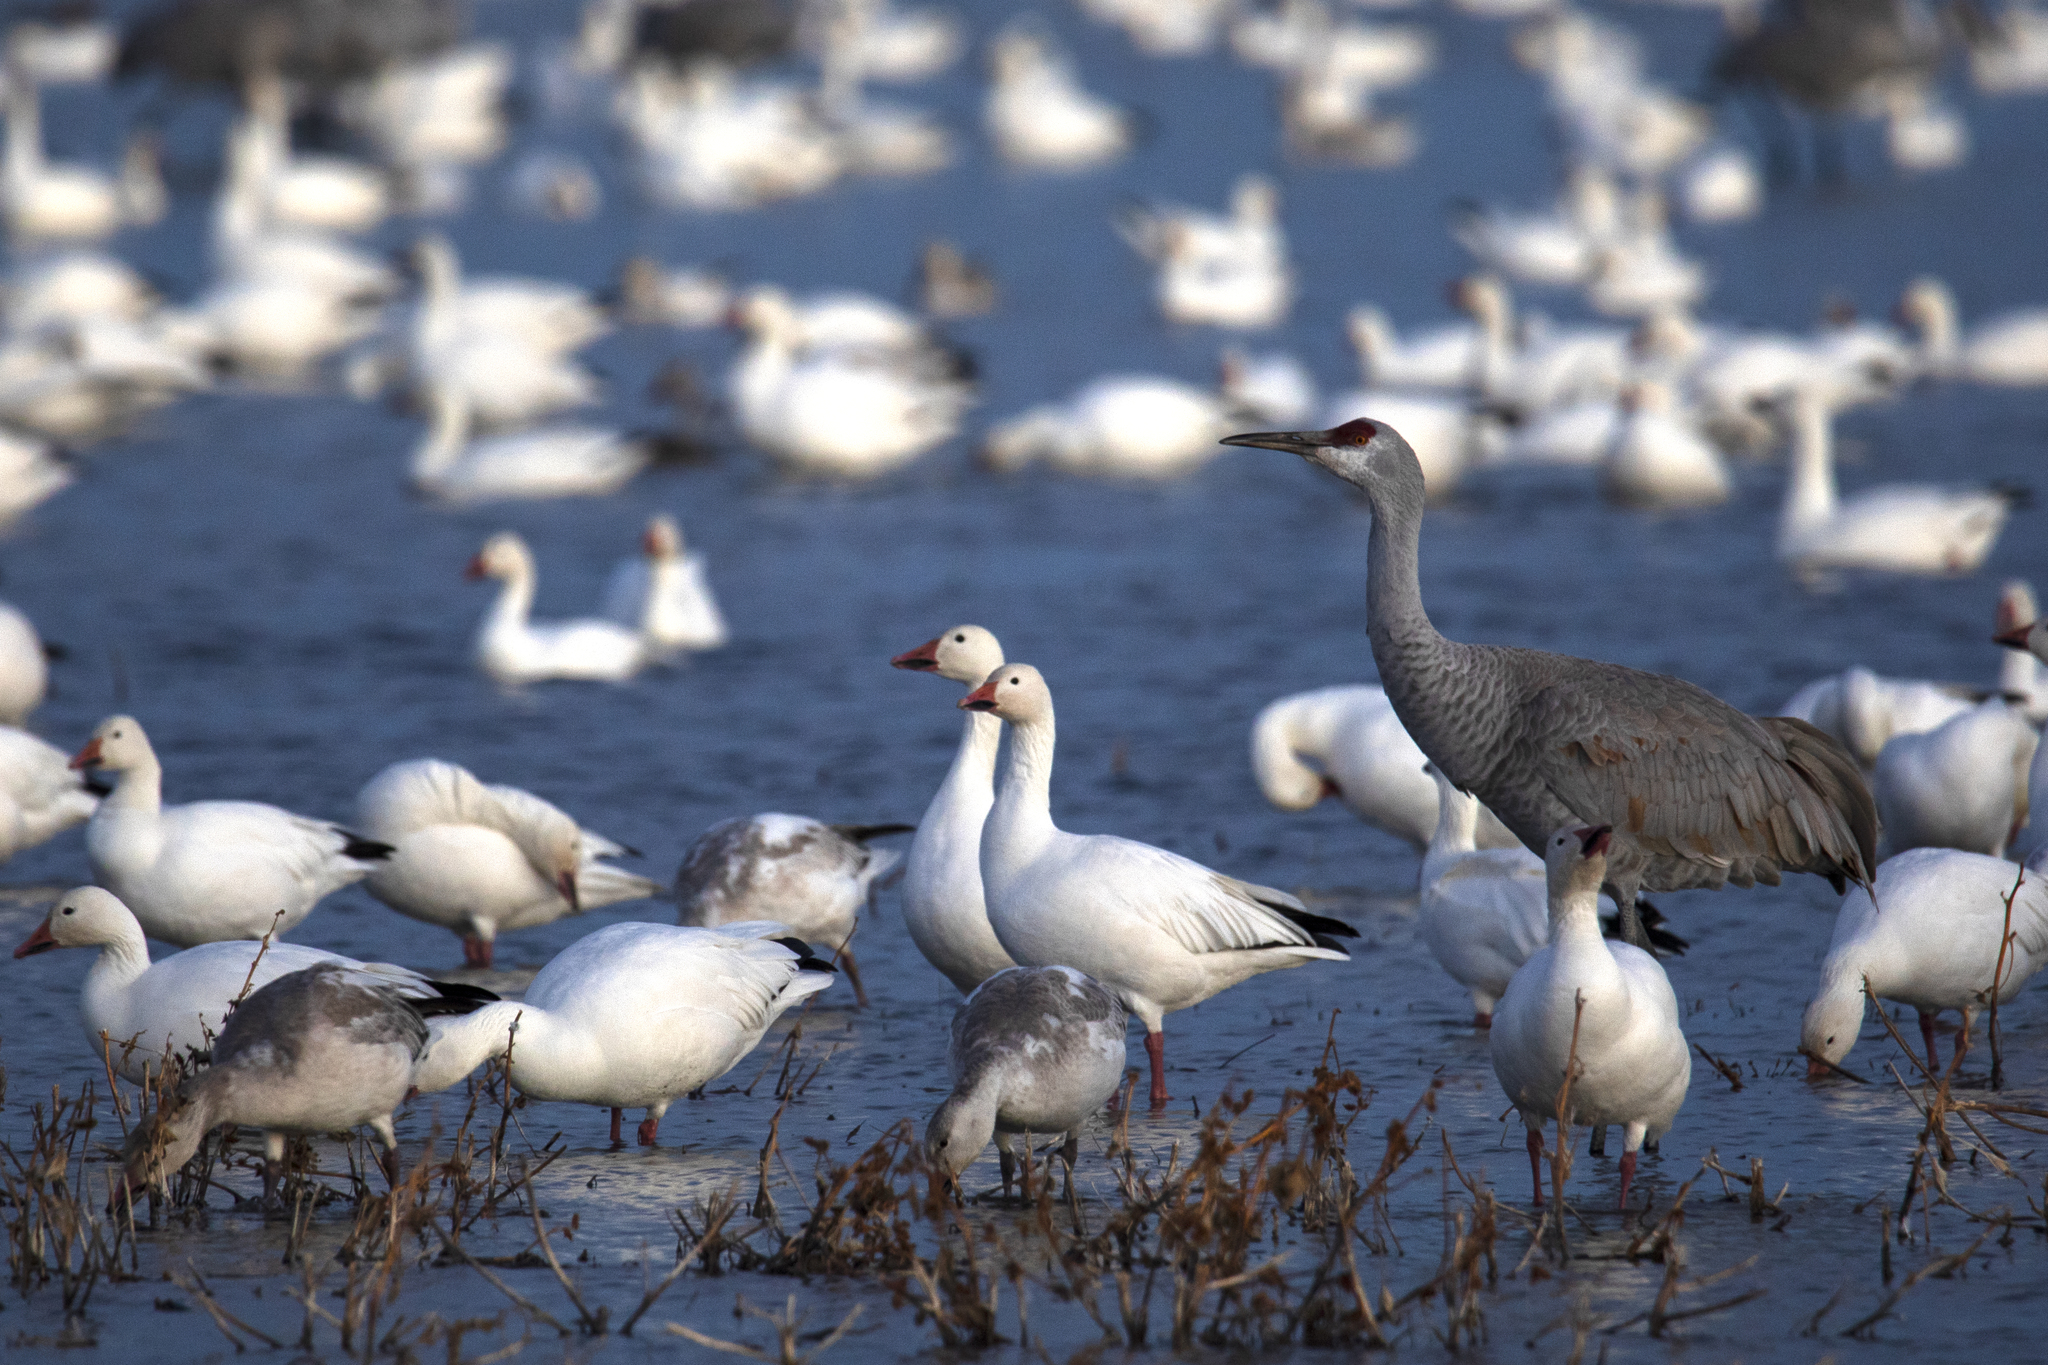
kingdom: Animalia
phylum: Chordata
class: Aves
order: Gruiformes
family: Gruidae
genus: Grus
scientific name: Grus canadensis
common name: Sandhill crane
